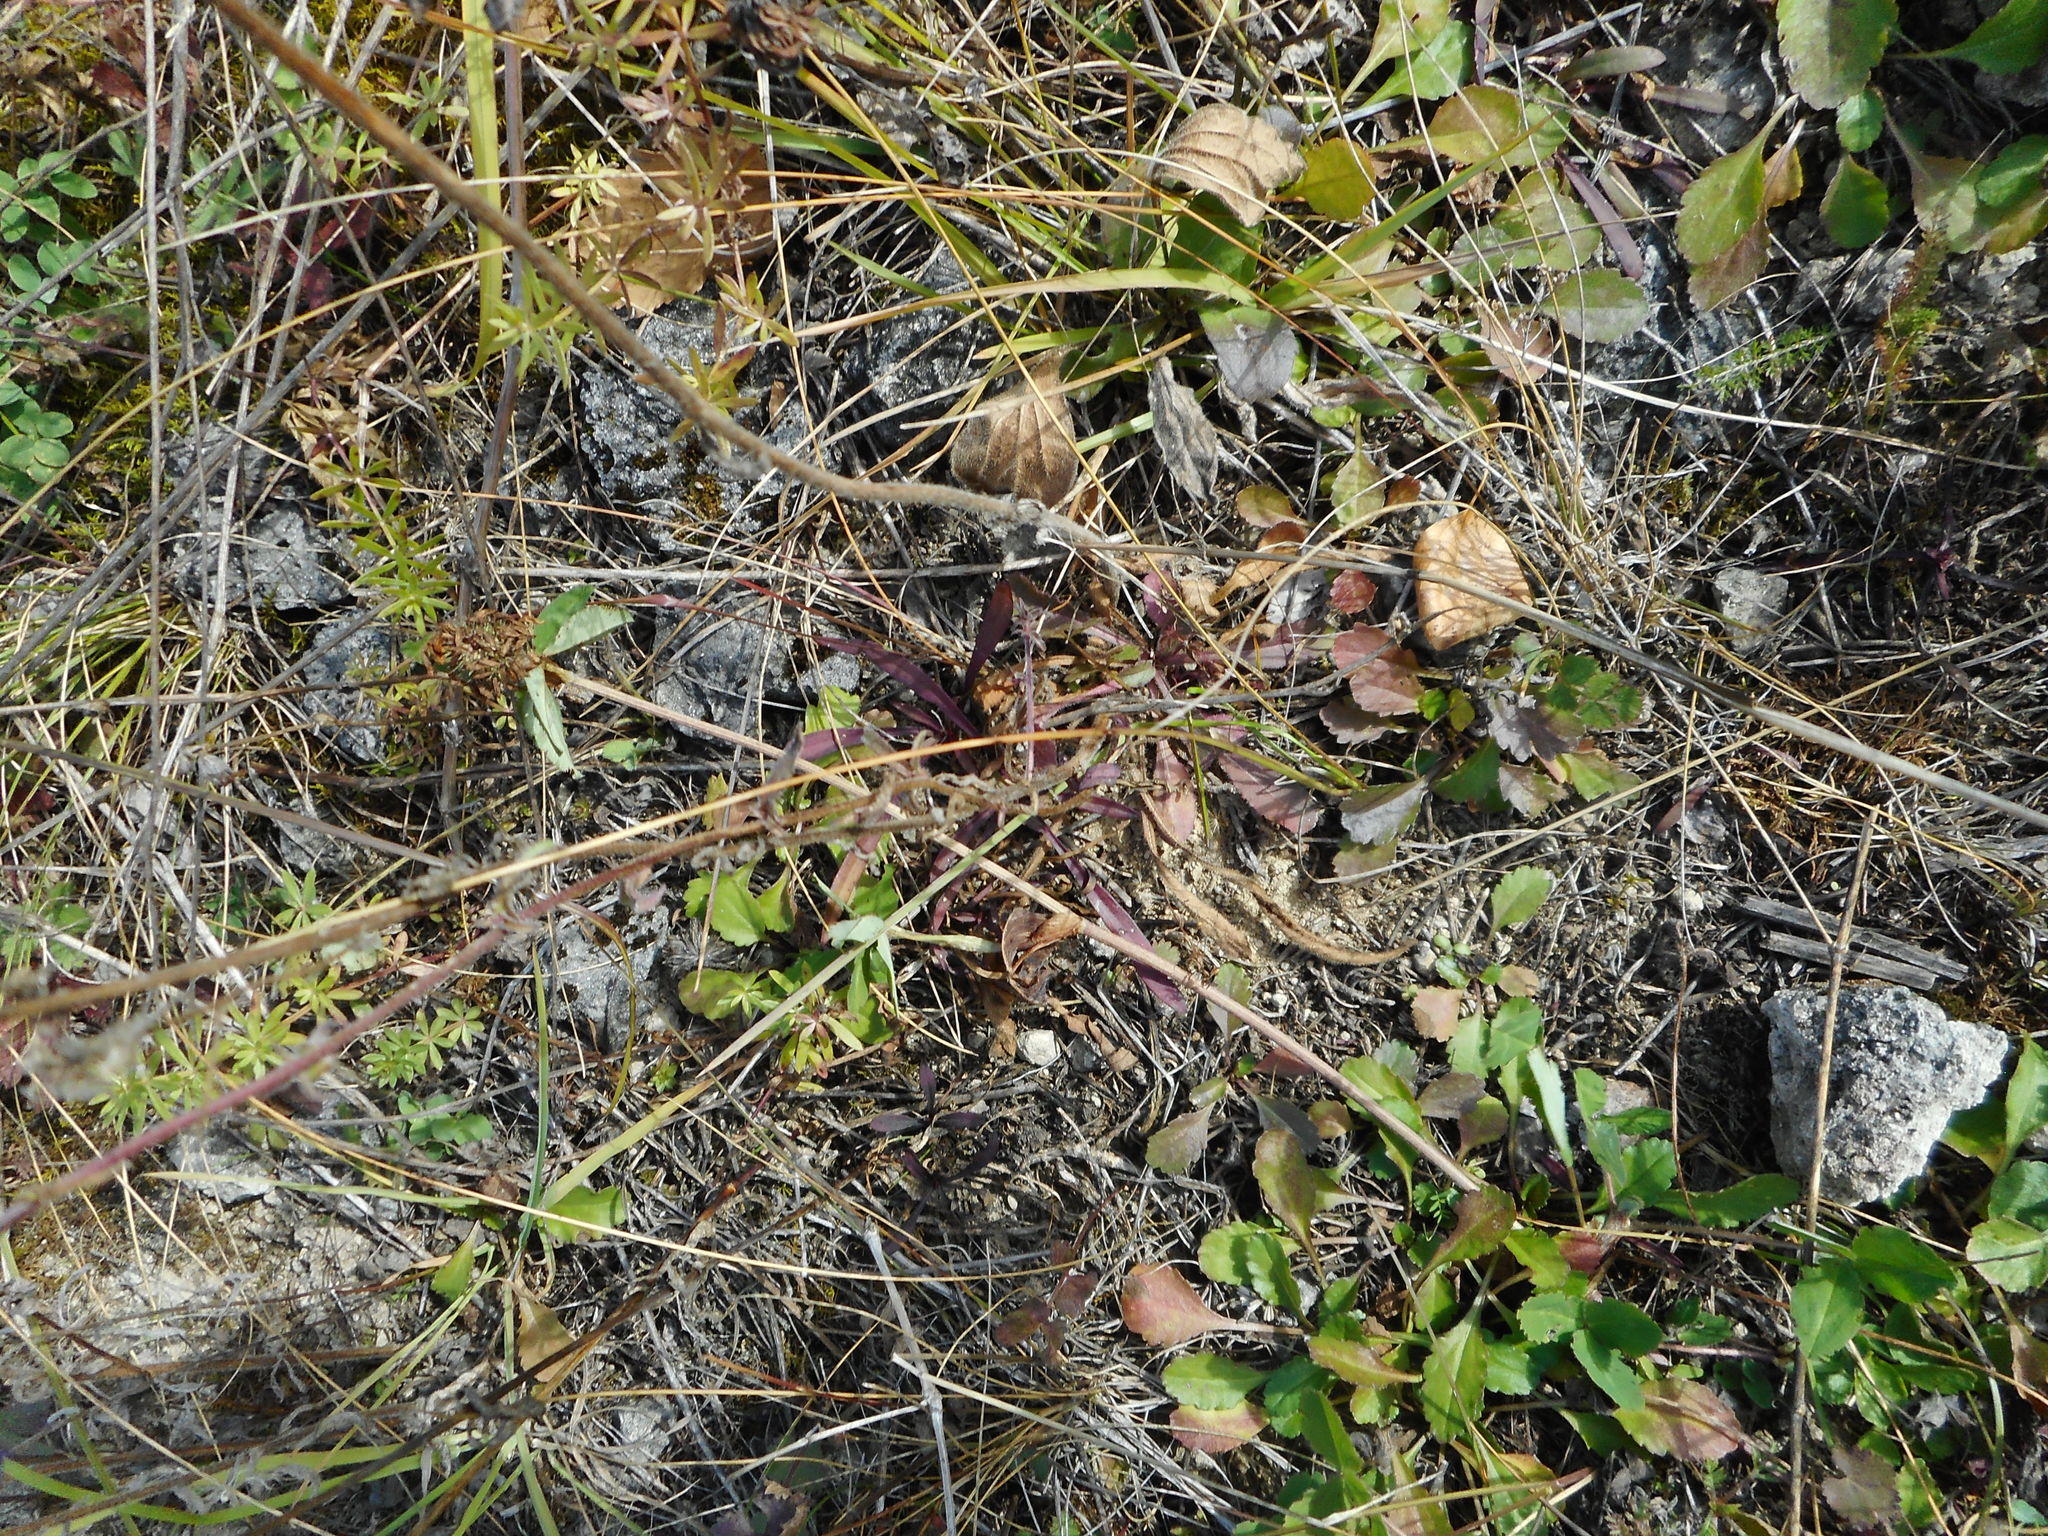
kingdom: Plantae
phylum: Tracheophyta
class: Magnoliopsida
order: Asterales
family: Campanulaceae
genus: Campanula
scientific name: Campanula sibirica
